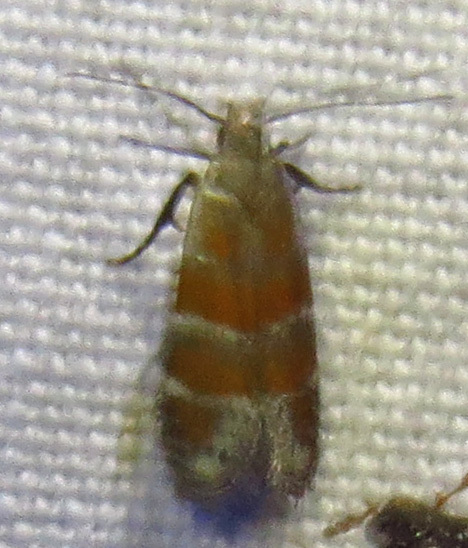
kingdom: Animalia
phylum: Arthropoda
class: Insecta
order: Lepidoptera
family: Gelechiidae
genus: Battaristis
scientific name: Battaristis vittella
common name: Orange stripe-backed moth
